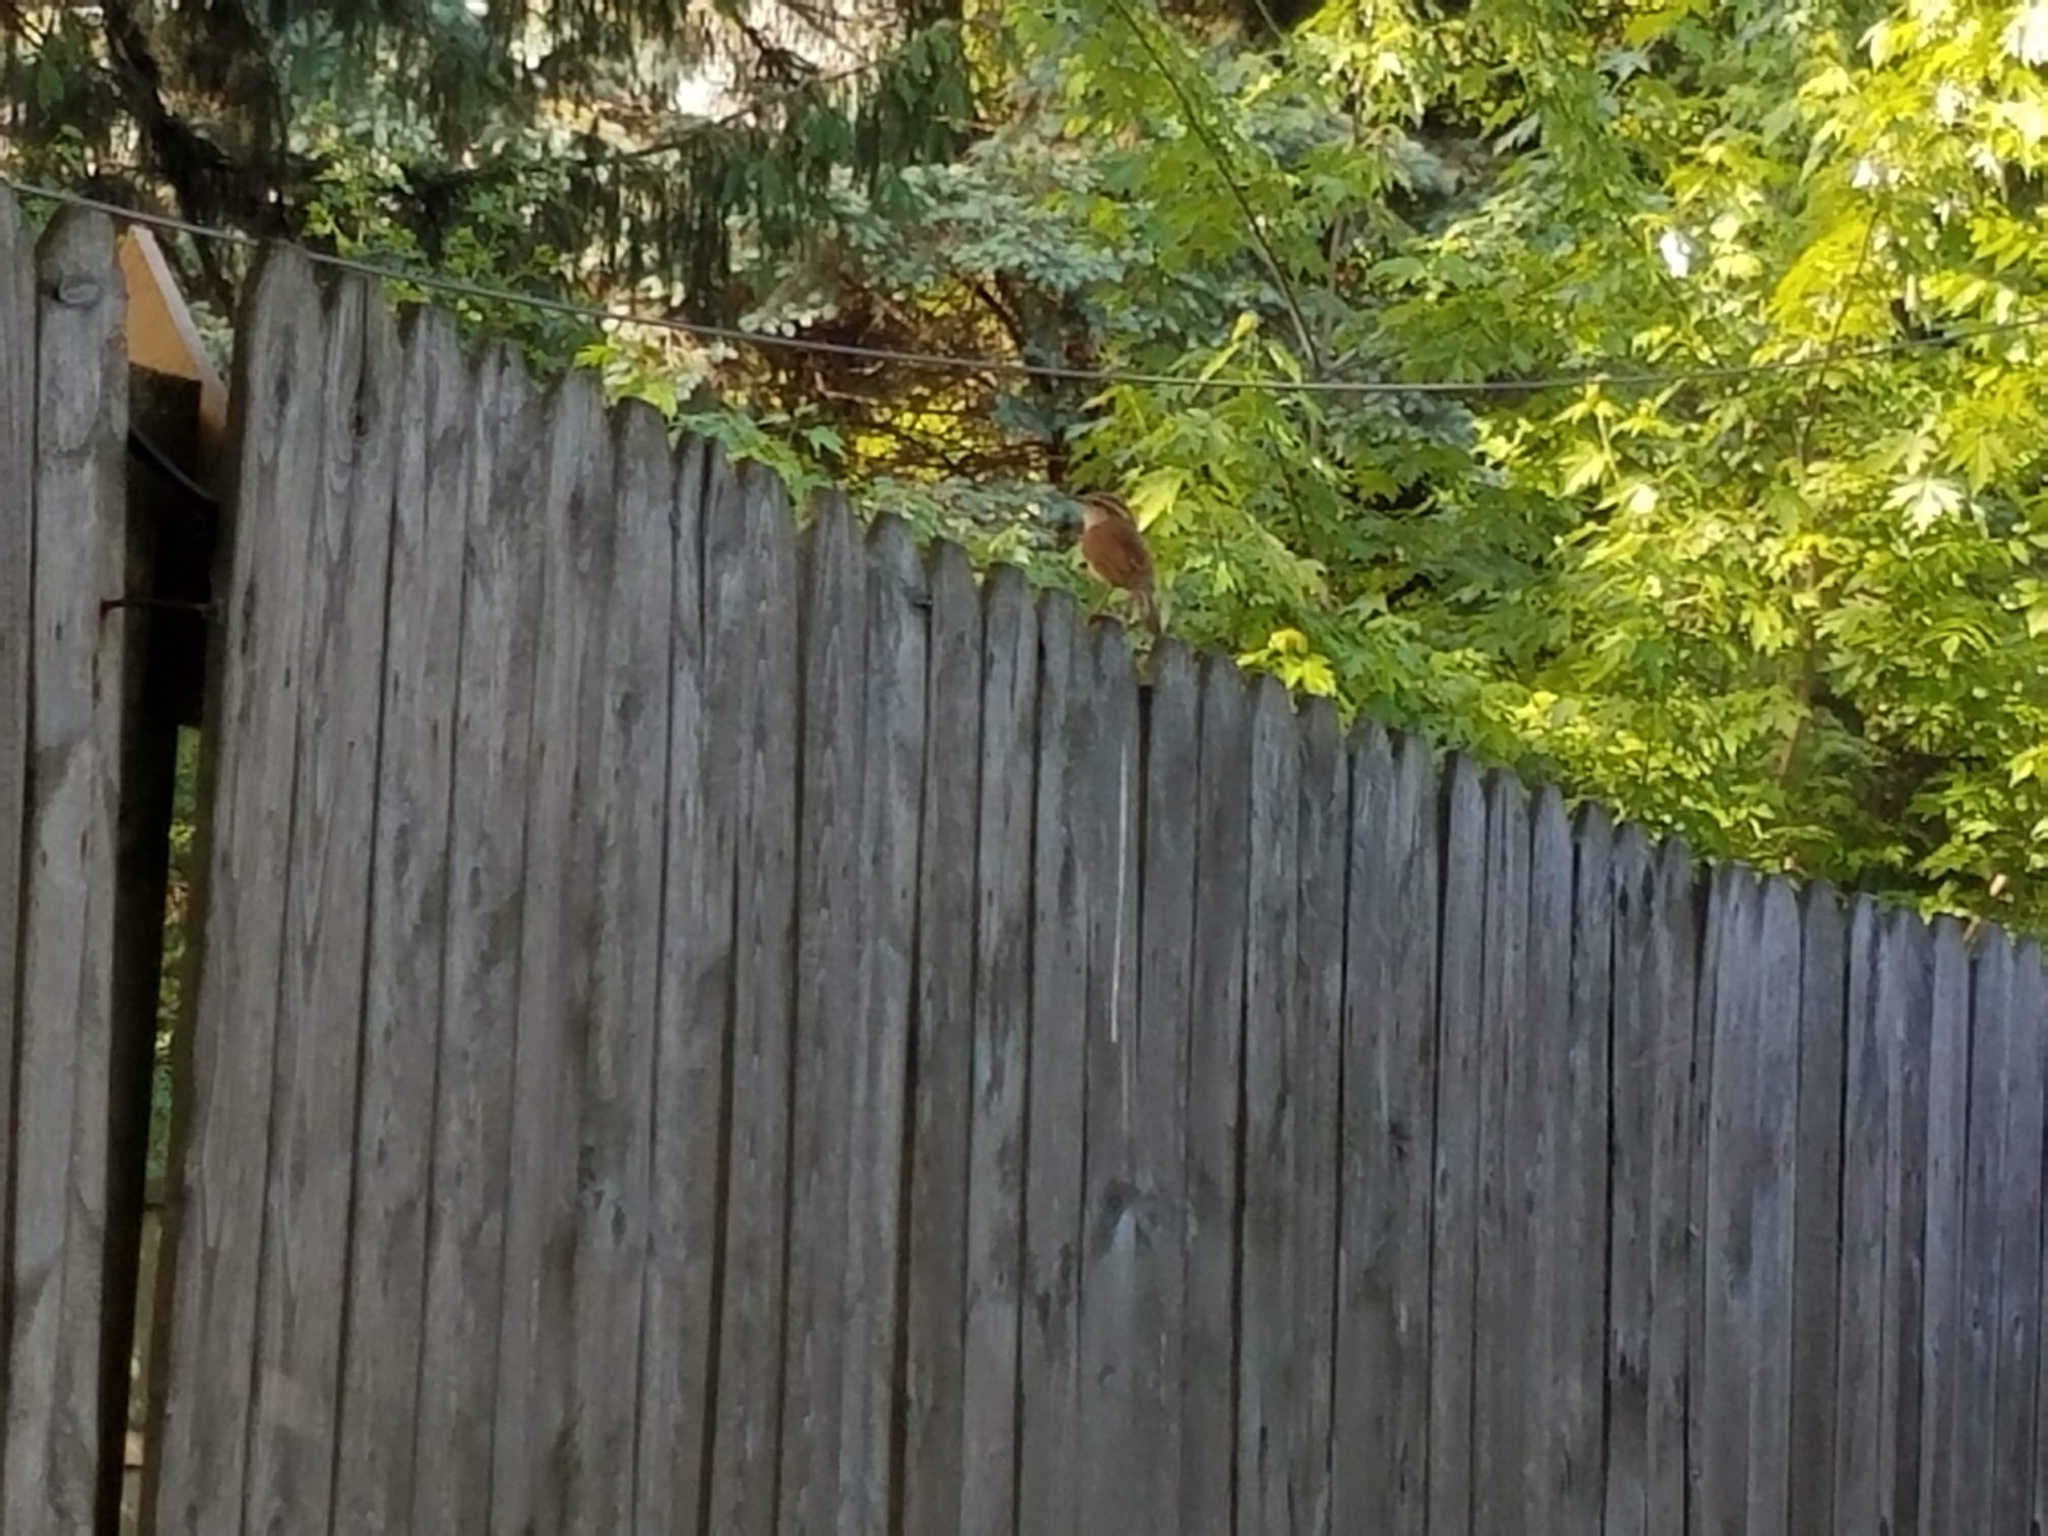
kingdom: Animalia
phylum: Chordata
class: Aves
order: Passeriformes
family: Troglodytidae
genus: Thryothorus
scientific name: Thryothorus ludovicianus
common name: Carolina wren
